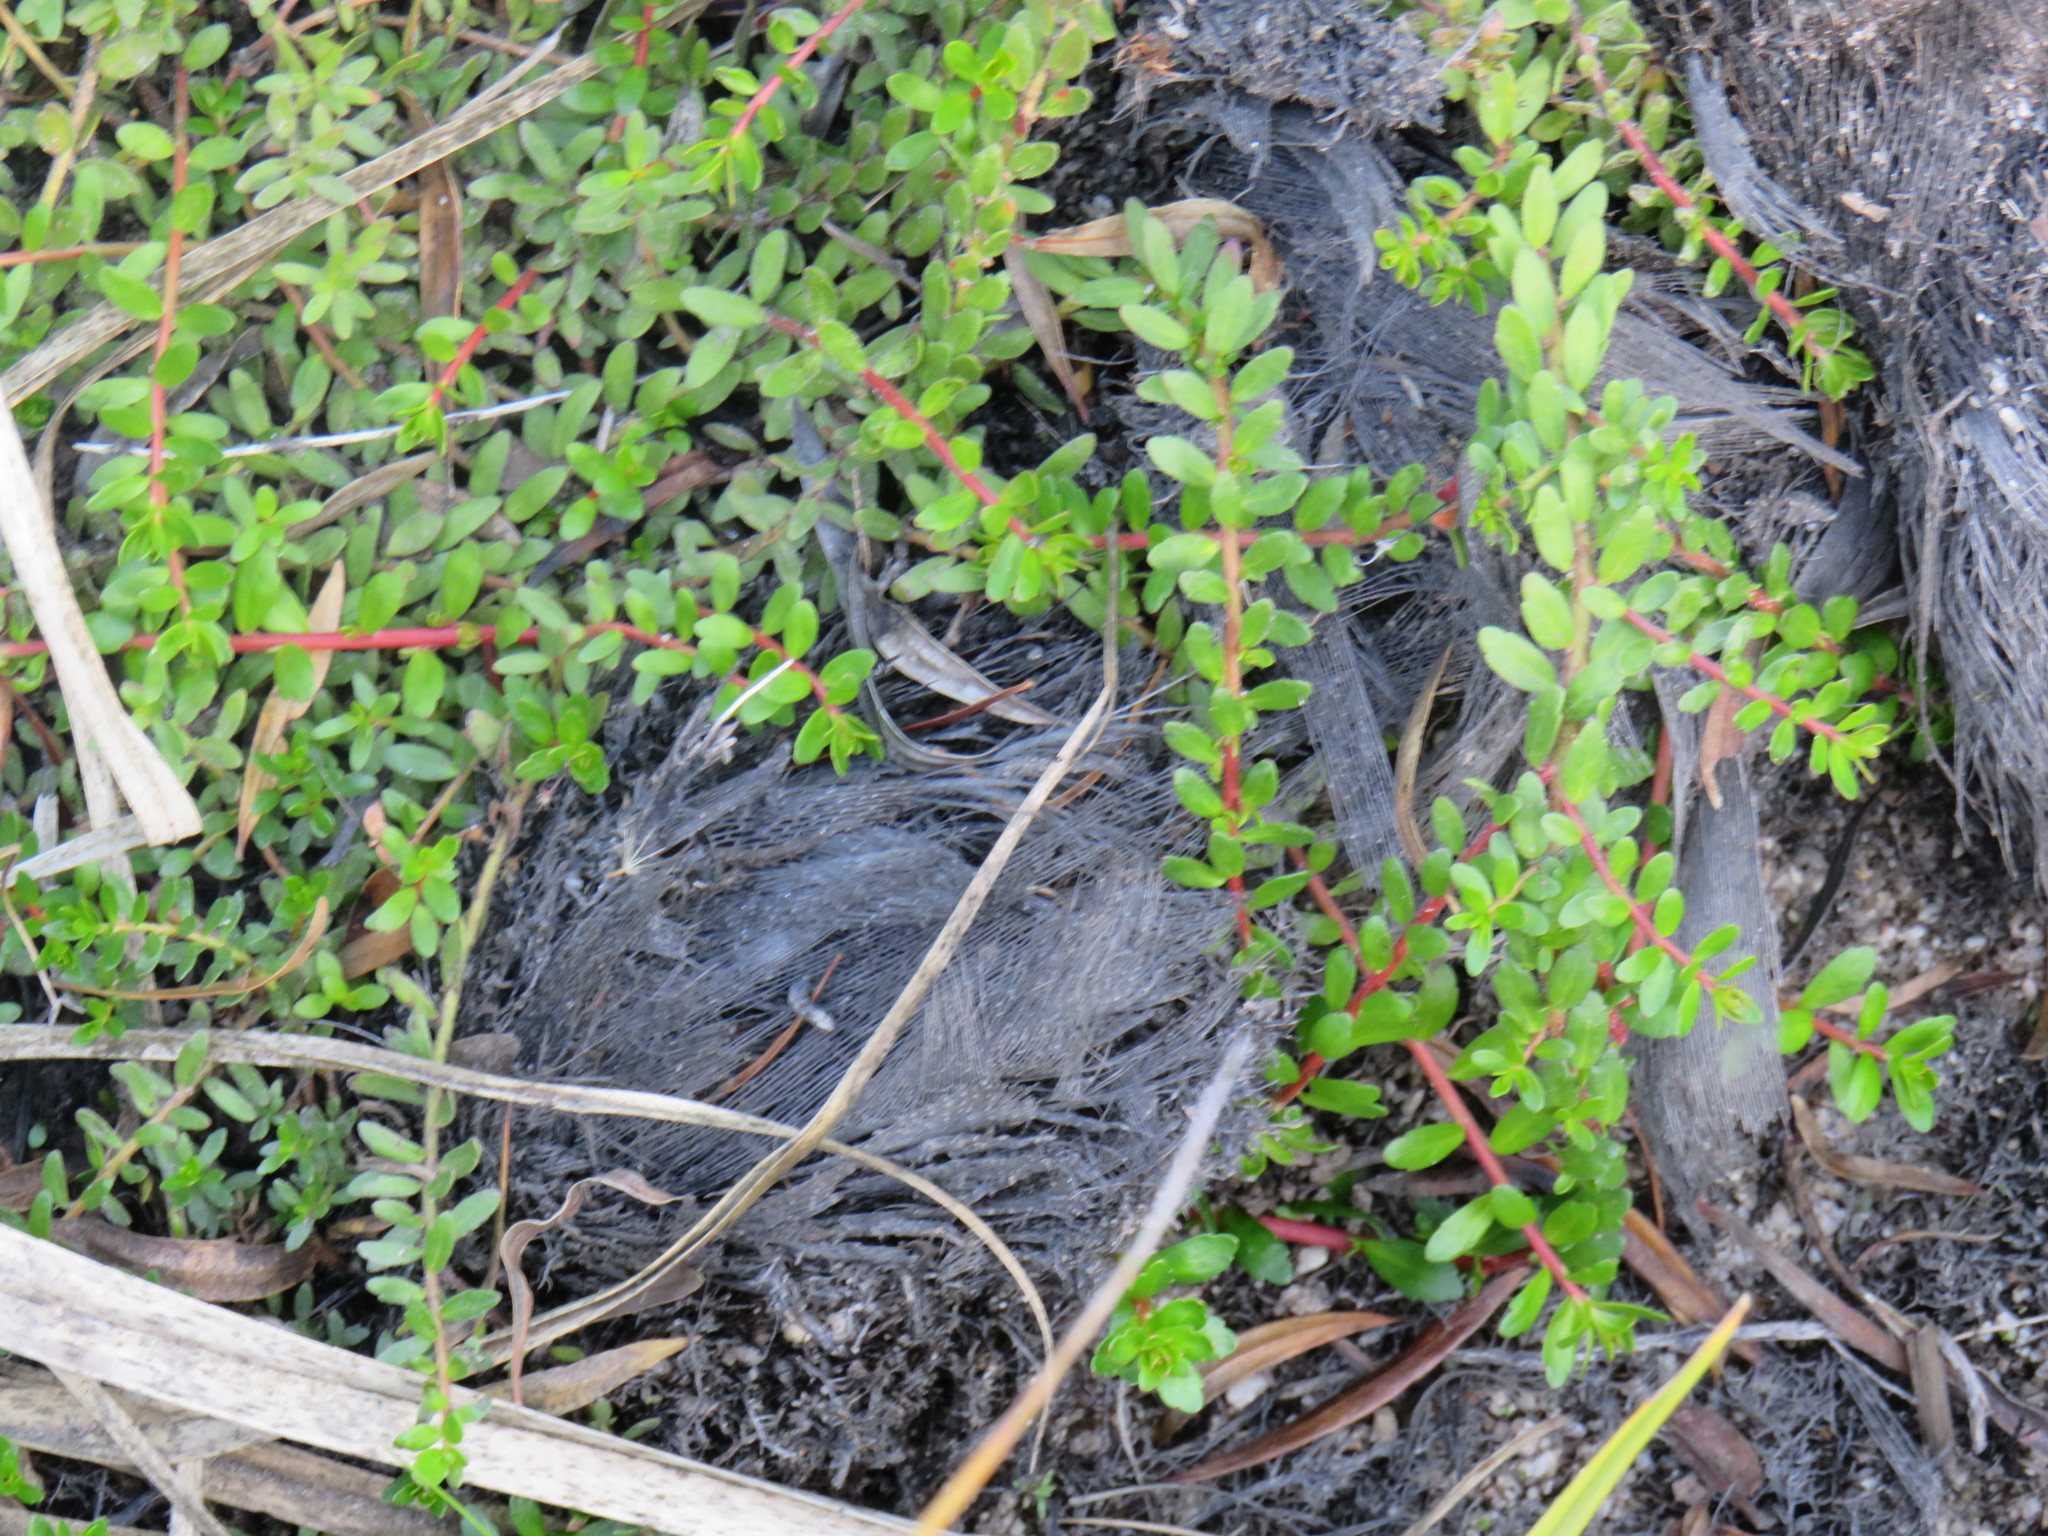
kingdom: Plantae
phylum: Tracheophyta
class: Magnoliopsida
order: Saxifragales
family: Haloragaceae
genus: Laurembergia
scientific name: Laurembergia repens
